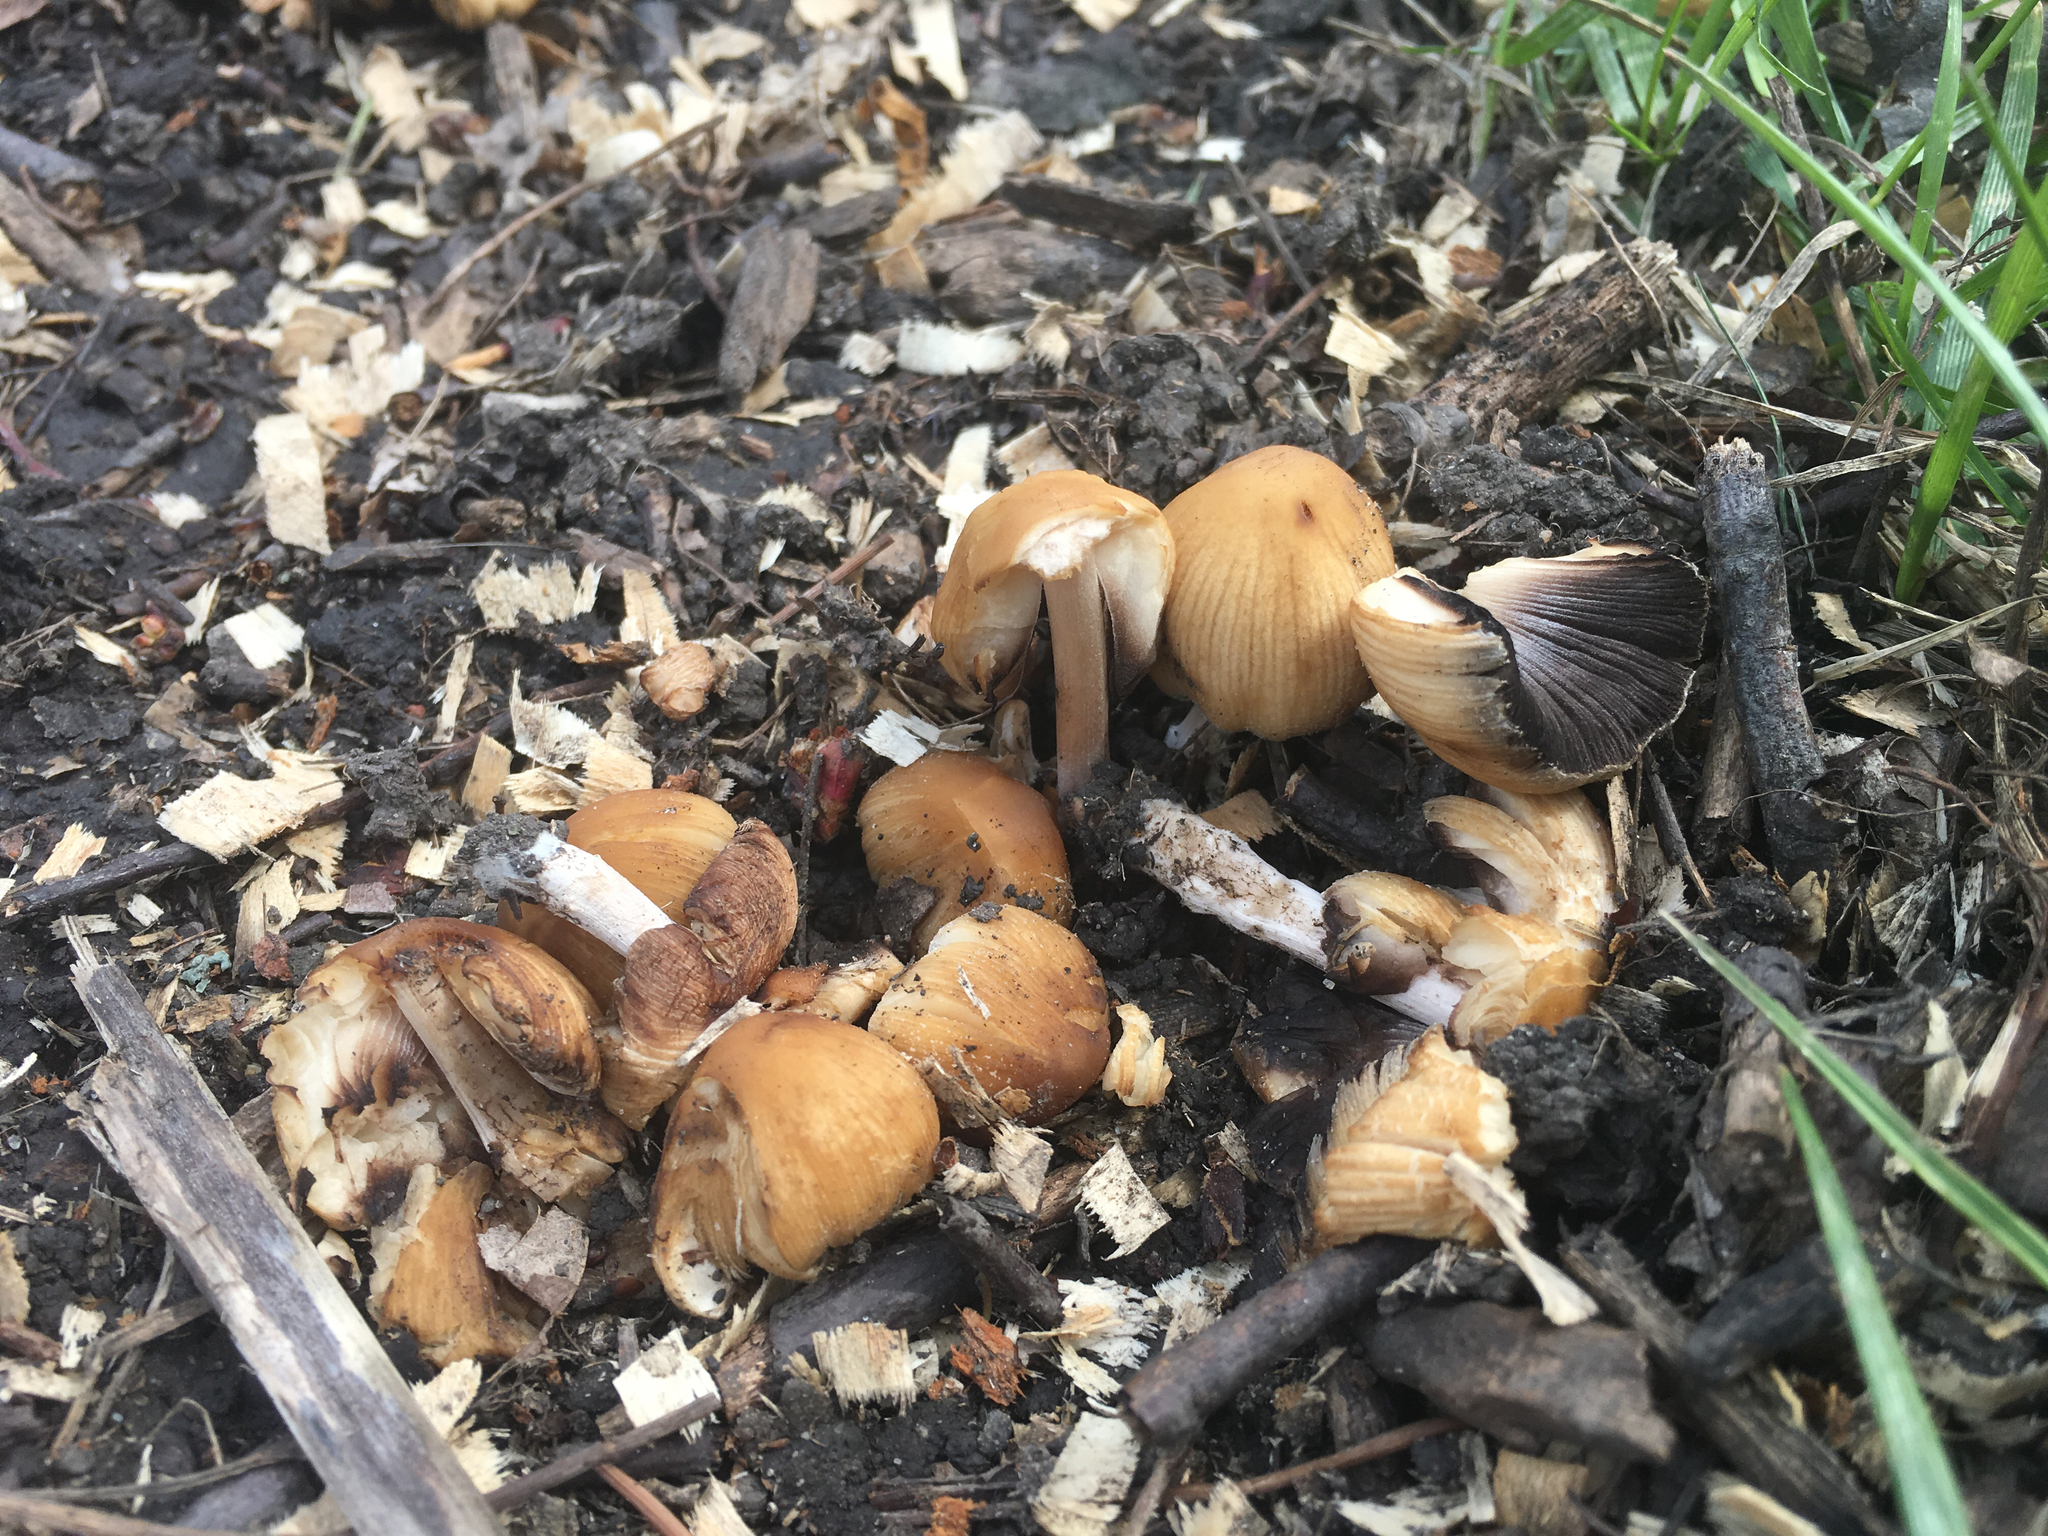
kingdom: Fungi
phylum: Basidiomycota
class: Agaricomycetes
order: Agaricales
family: Psathyrellaceae
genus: Coprinellus
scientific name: Coprinellus micaceus
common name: Glistening ink-cap
